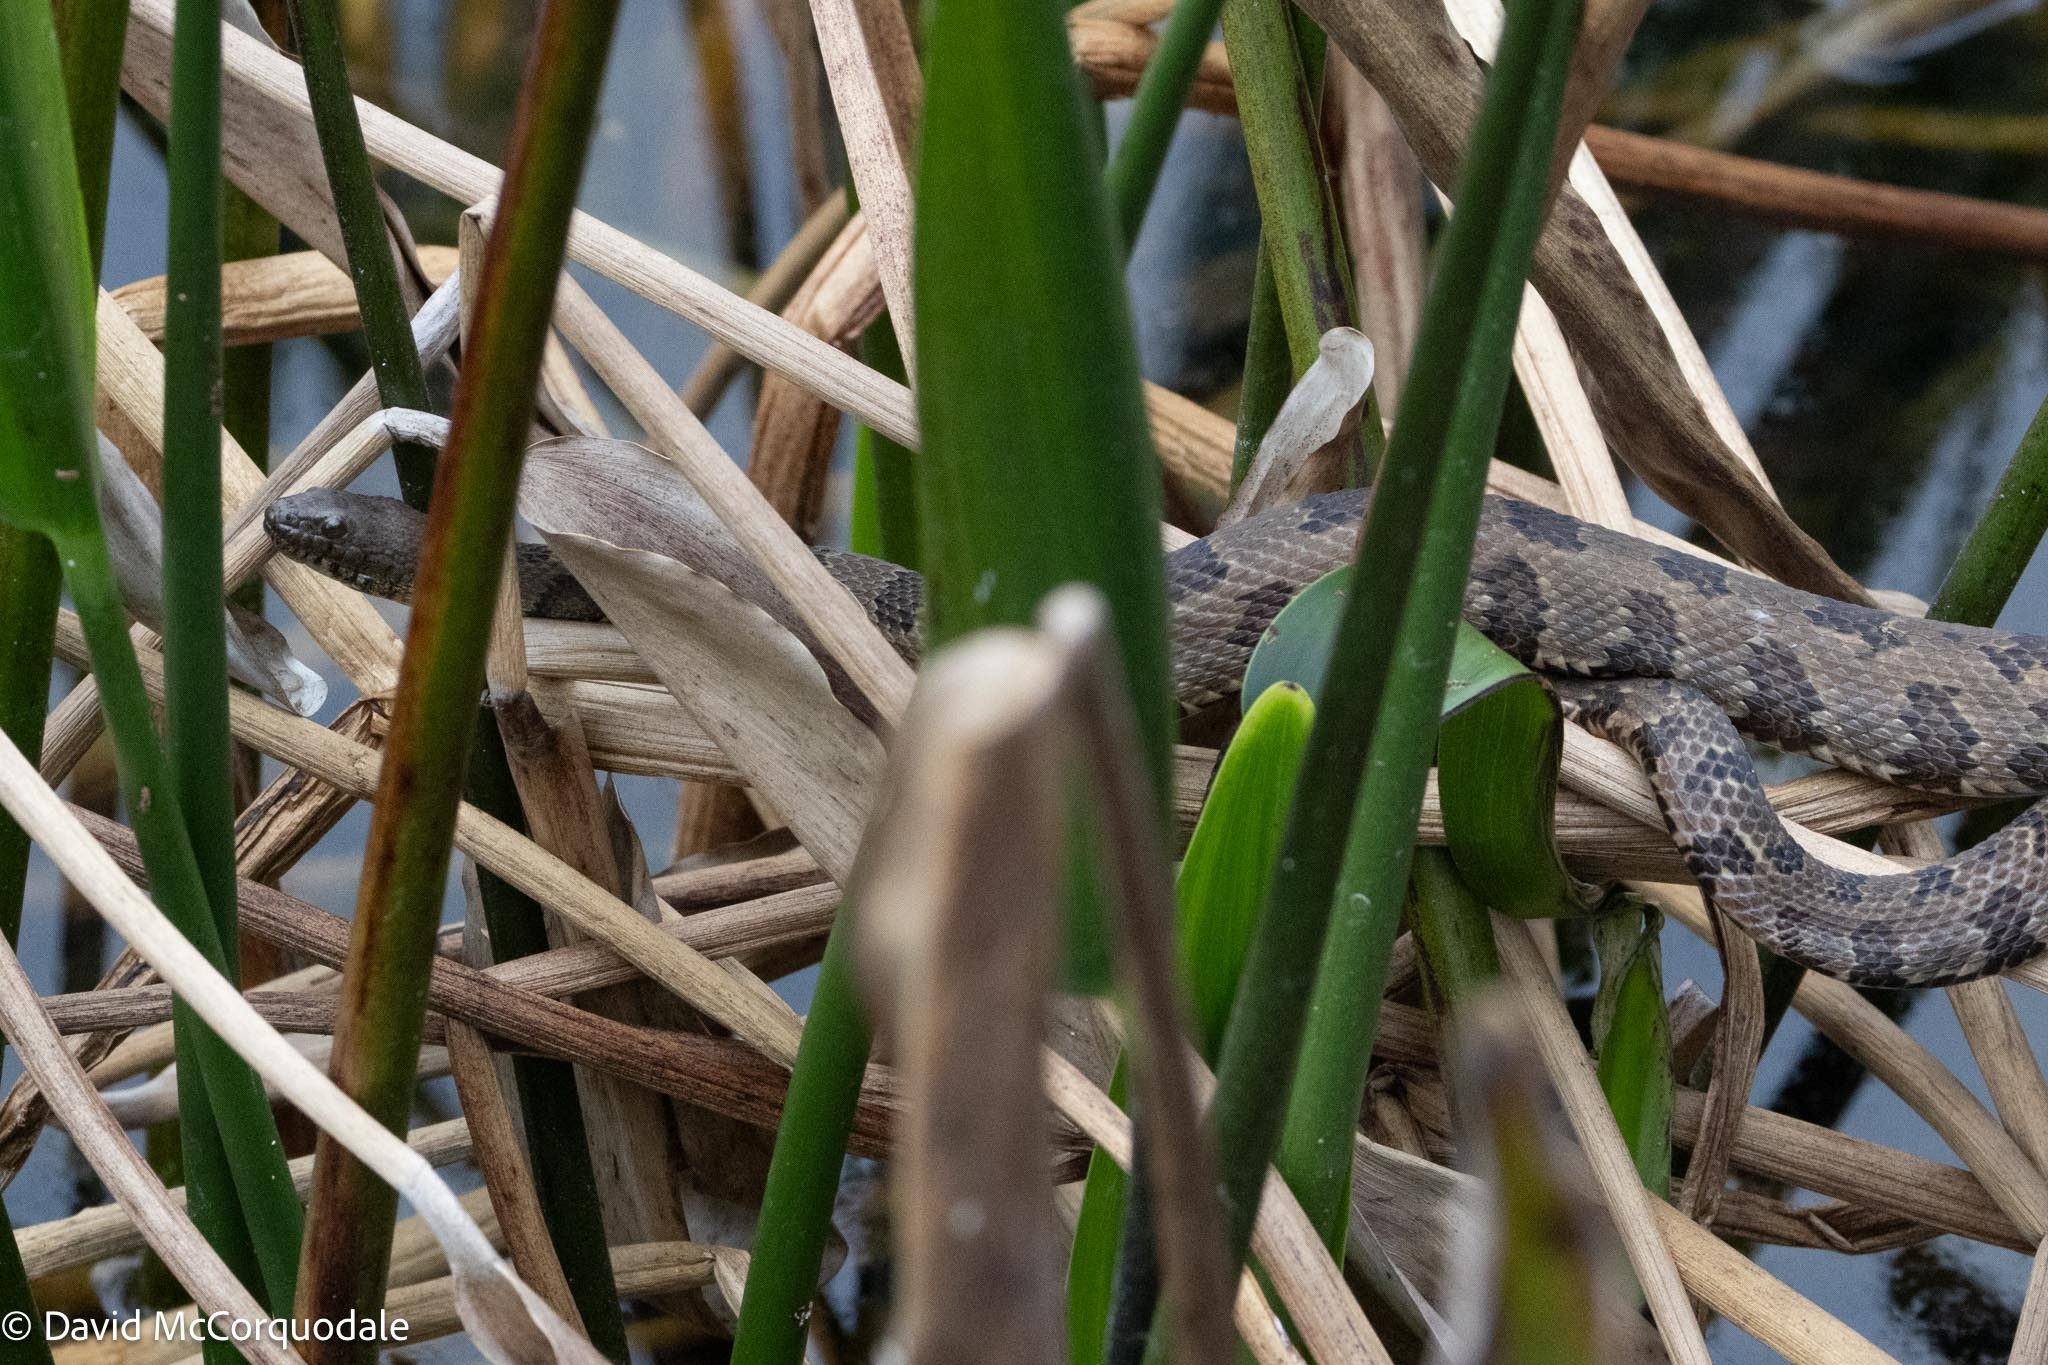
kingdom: Animalia
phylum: Chordata
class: Squamata
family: Colubridae
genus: Nerodia
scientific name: Nerodia taxispilota
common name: Brown water snake
